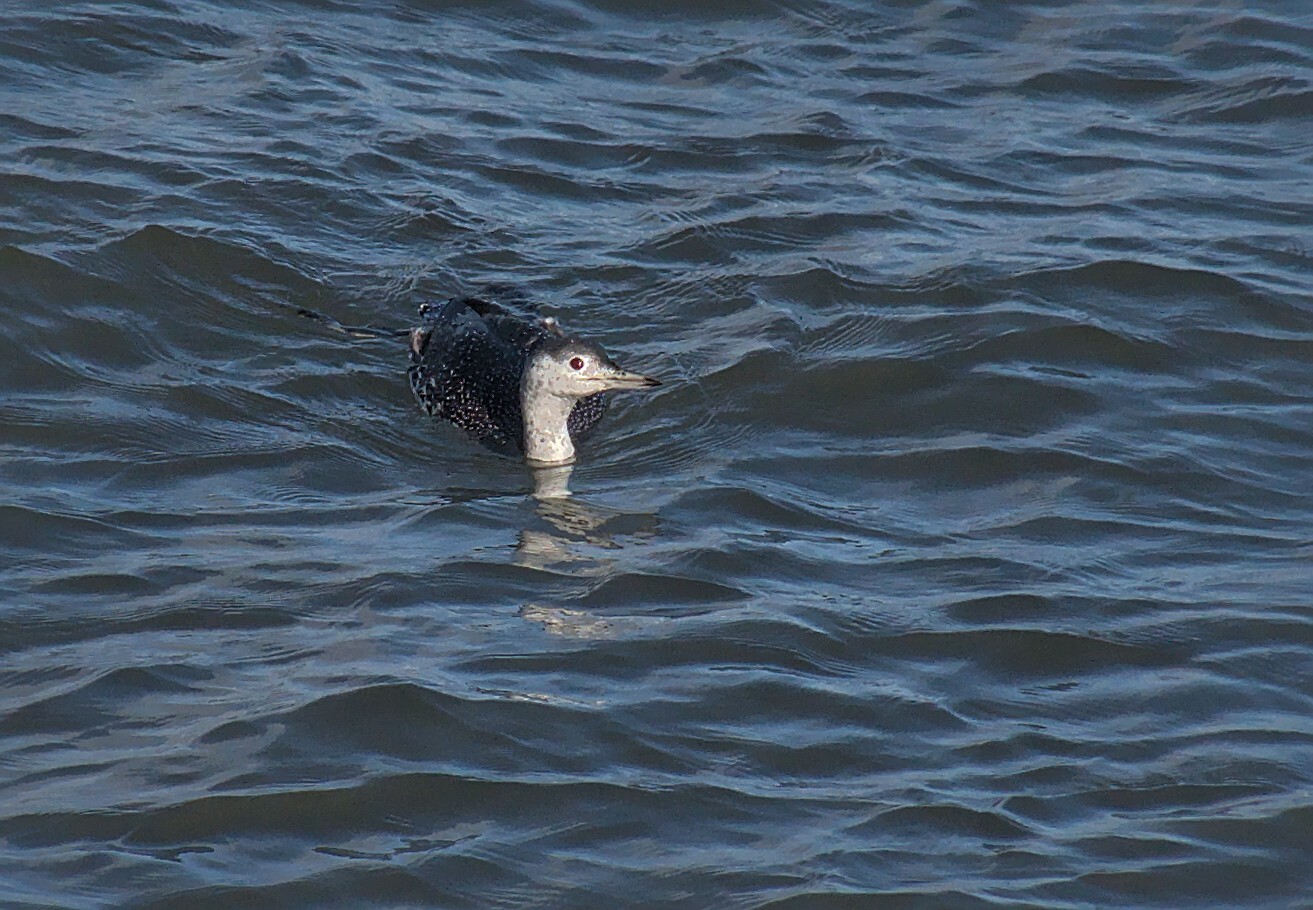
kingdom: Animalia
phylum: Chordata
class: Aves
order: Gaviiformes
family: Gaviidae
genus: Gavia
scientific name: Gavia stellata
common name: Red-throated loon
